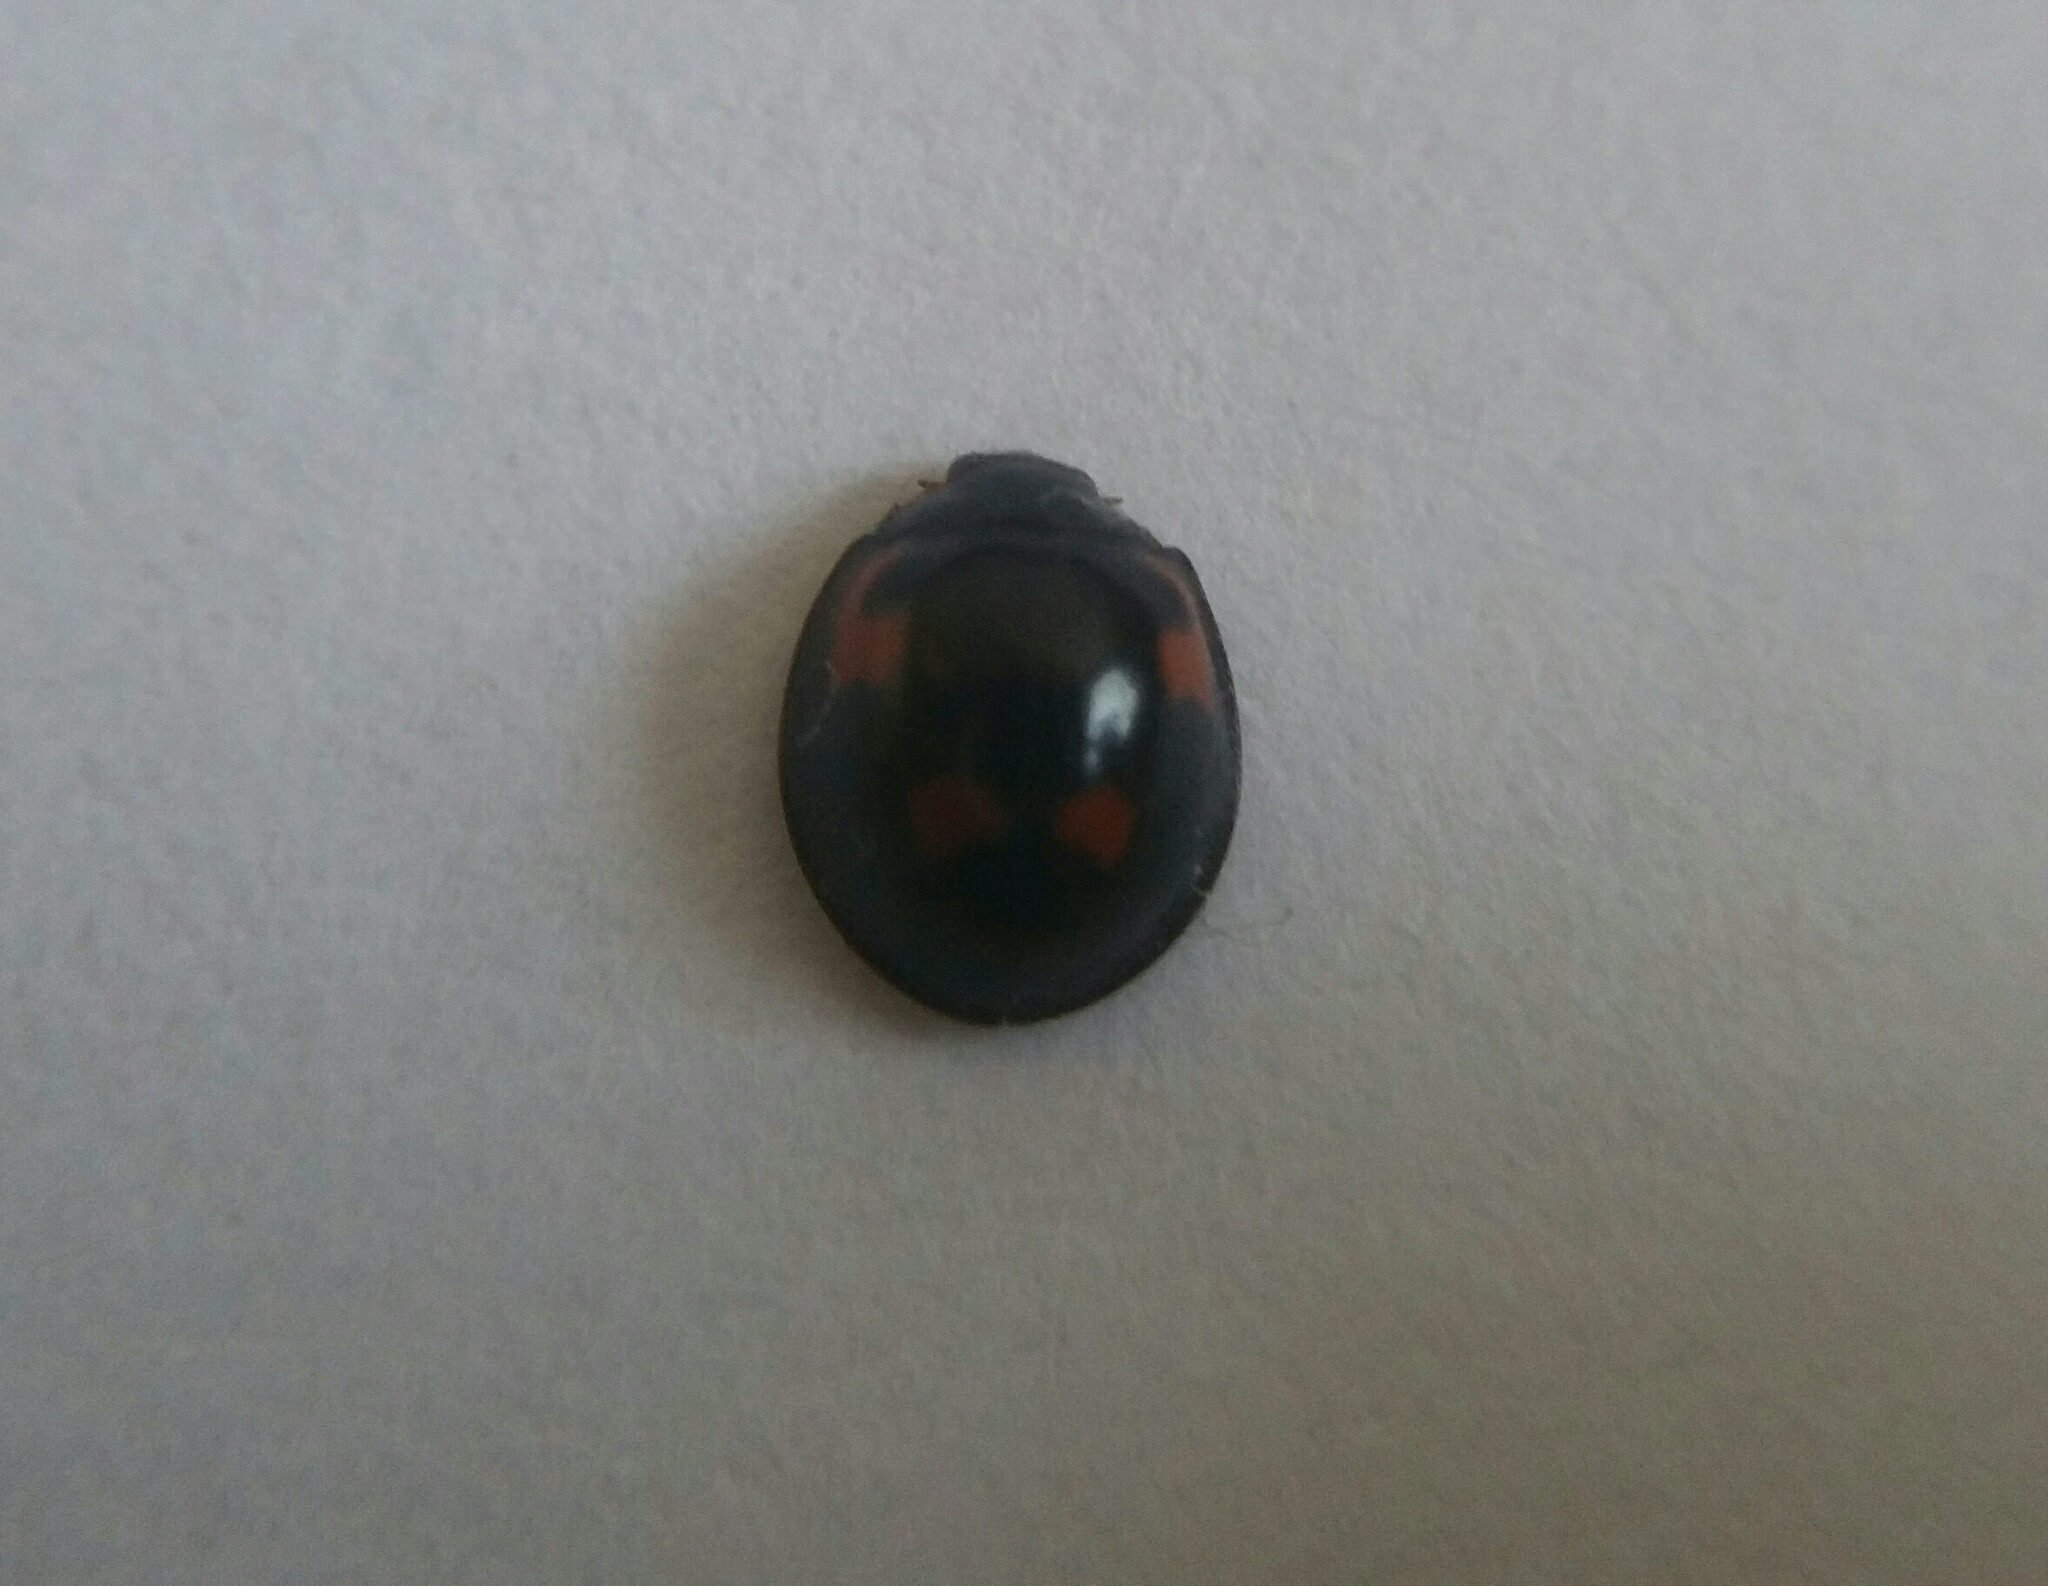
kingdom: Animalia
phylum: Arthropoda
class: Insecta
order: Coleoptera
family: Coccinellidae
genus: Brumus
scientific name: Brumus quadripustulatus
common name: Ladybird beetle
